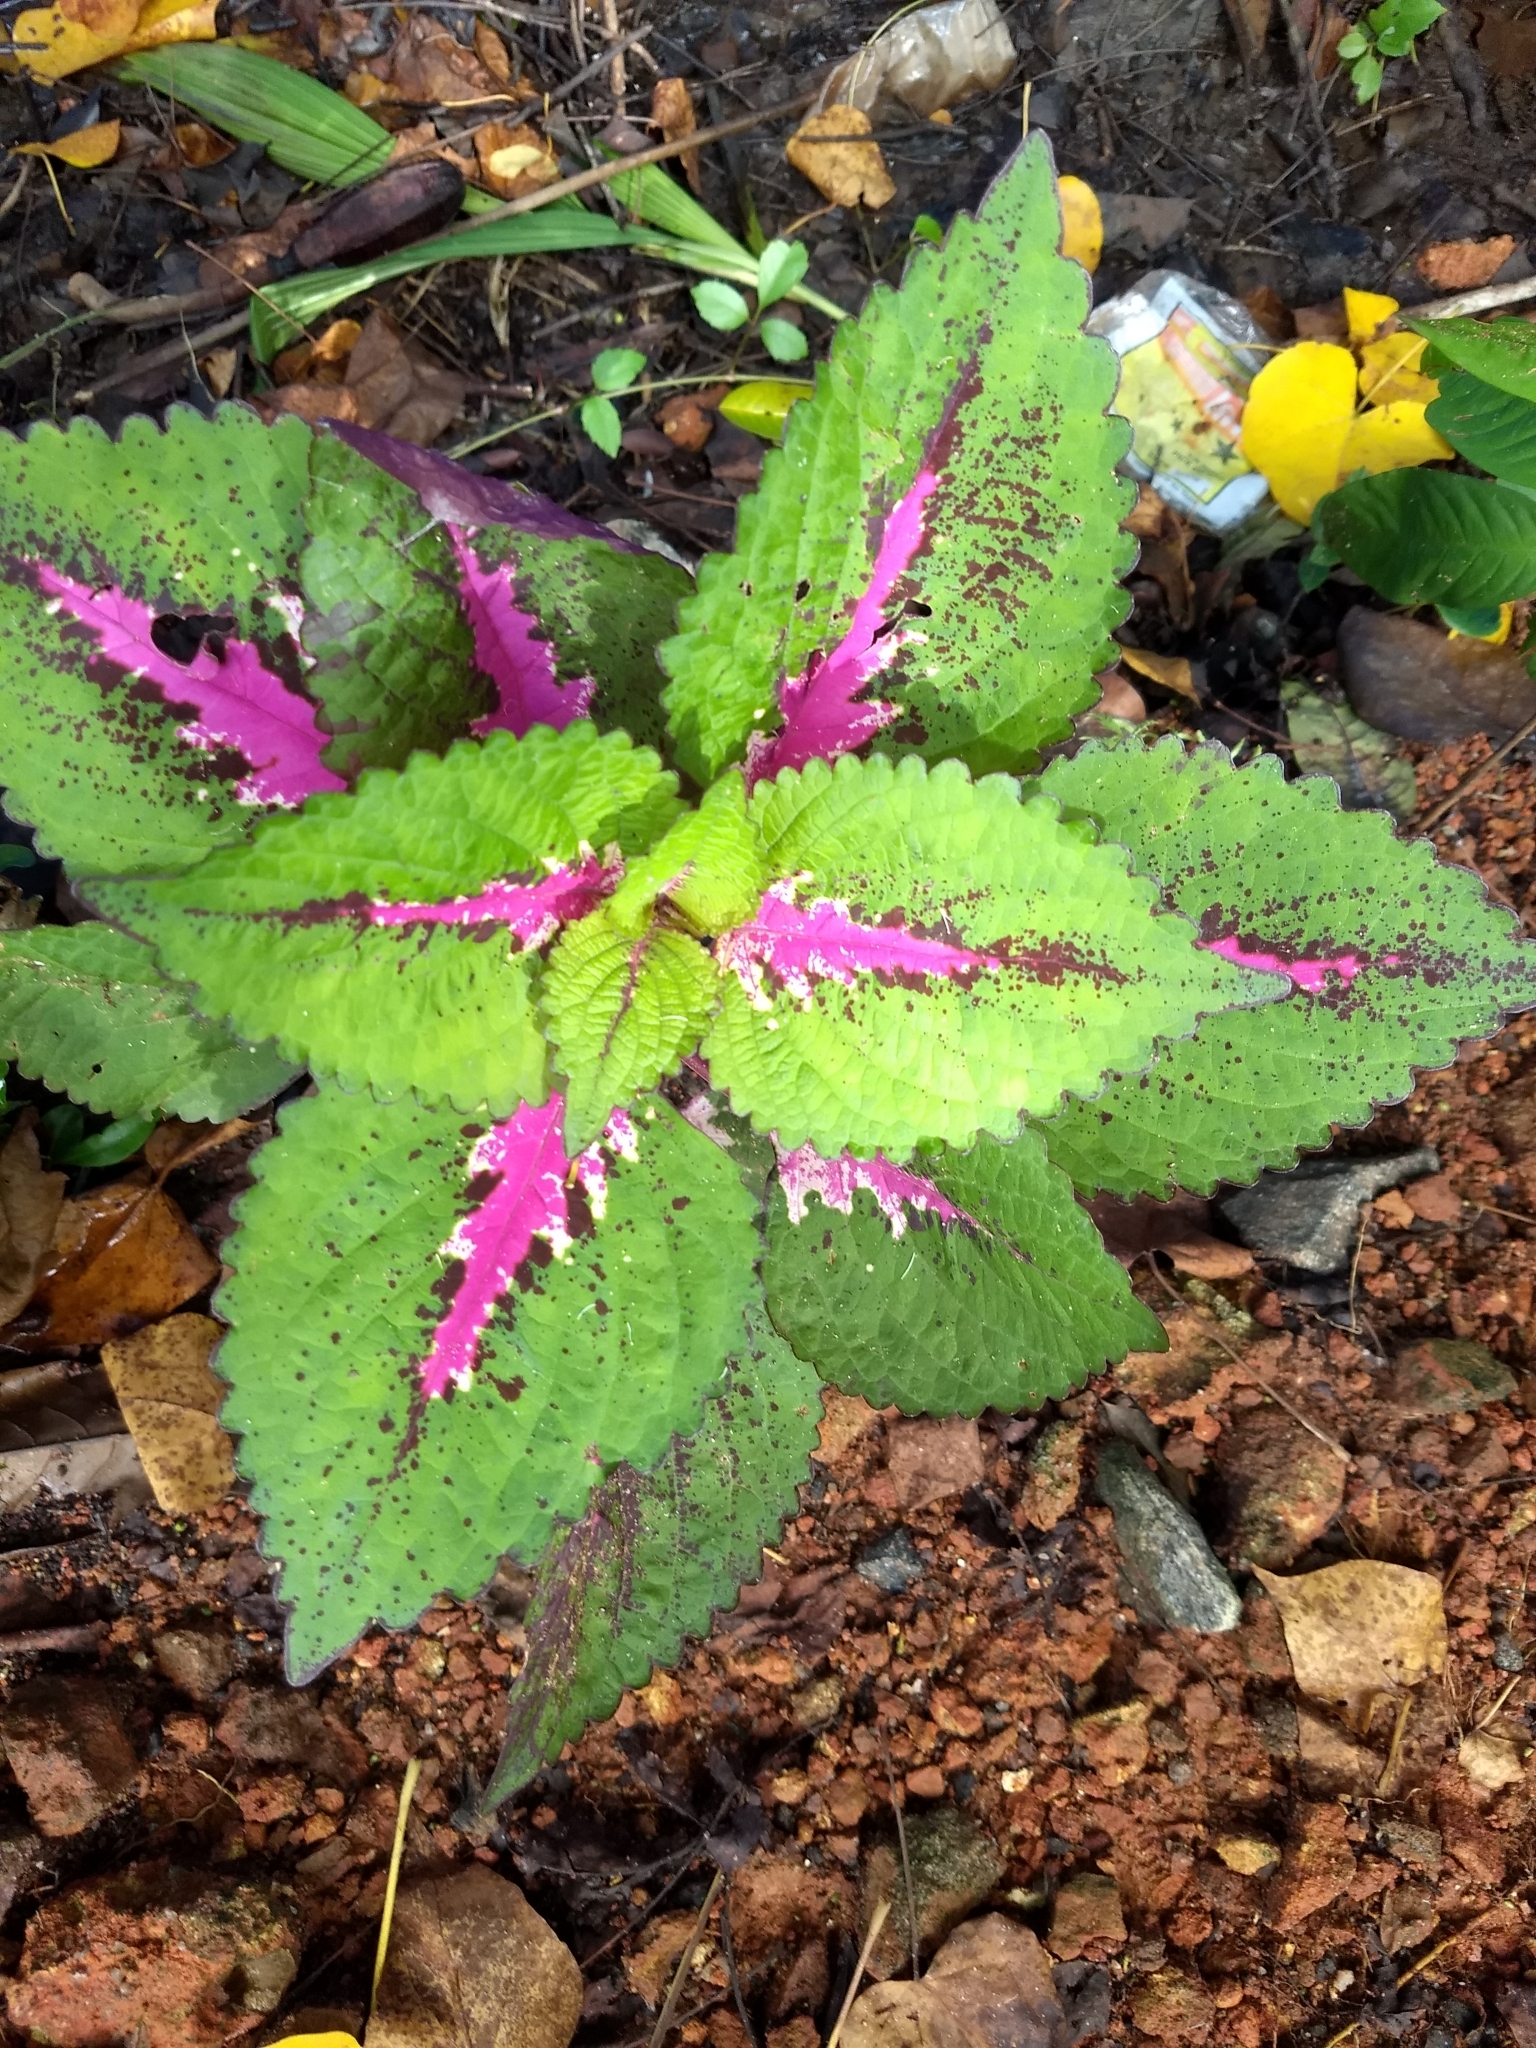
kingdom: Plantae
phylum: Tracheophyta
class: Magnoliopsida
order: Lamiales
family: Lamiaceae
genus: Coleus
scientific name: Coleus scutellarioides
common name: Coleus
